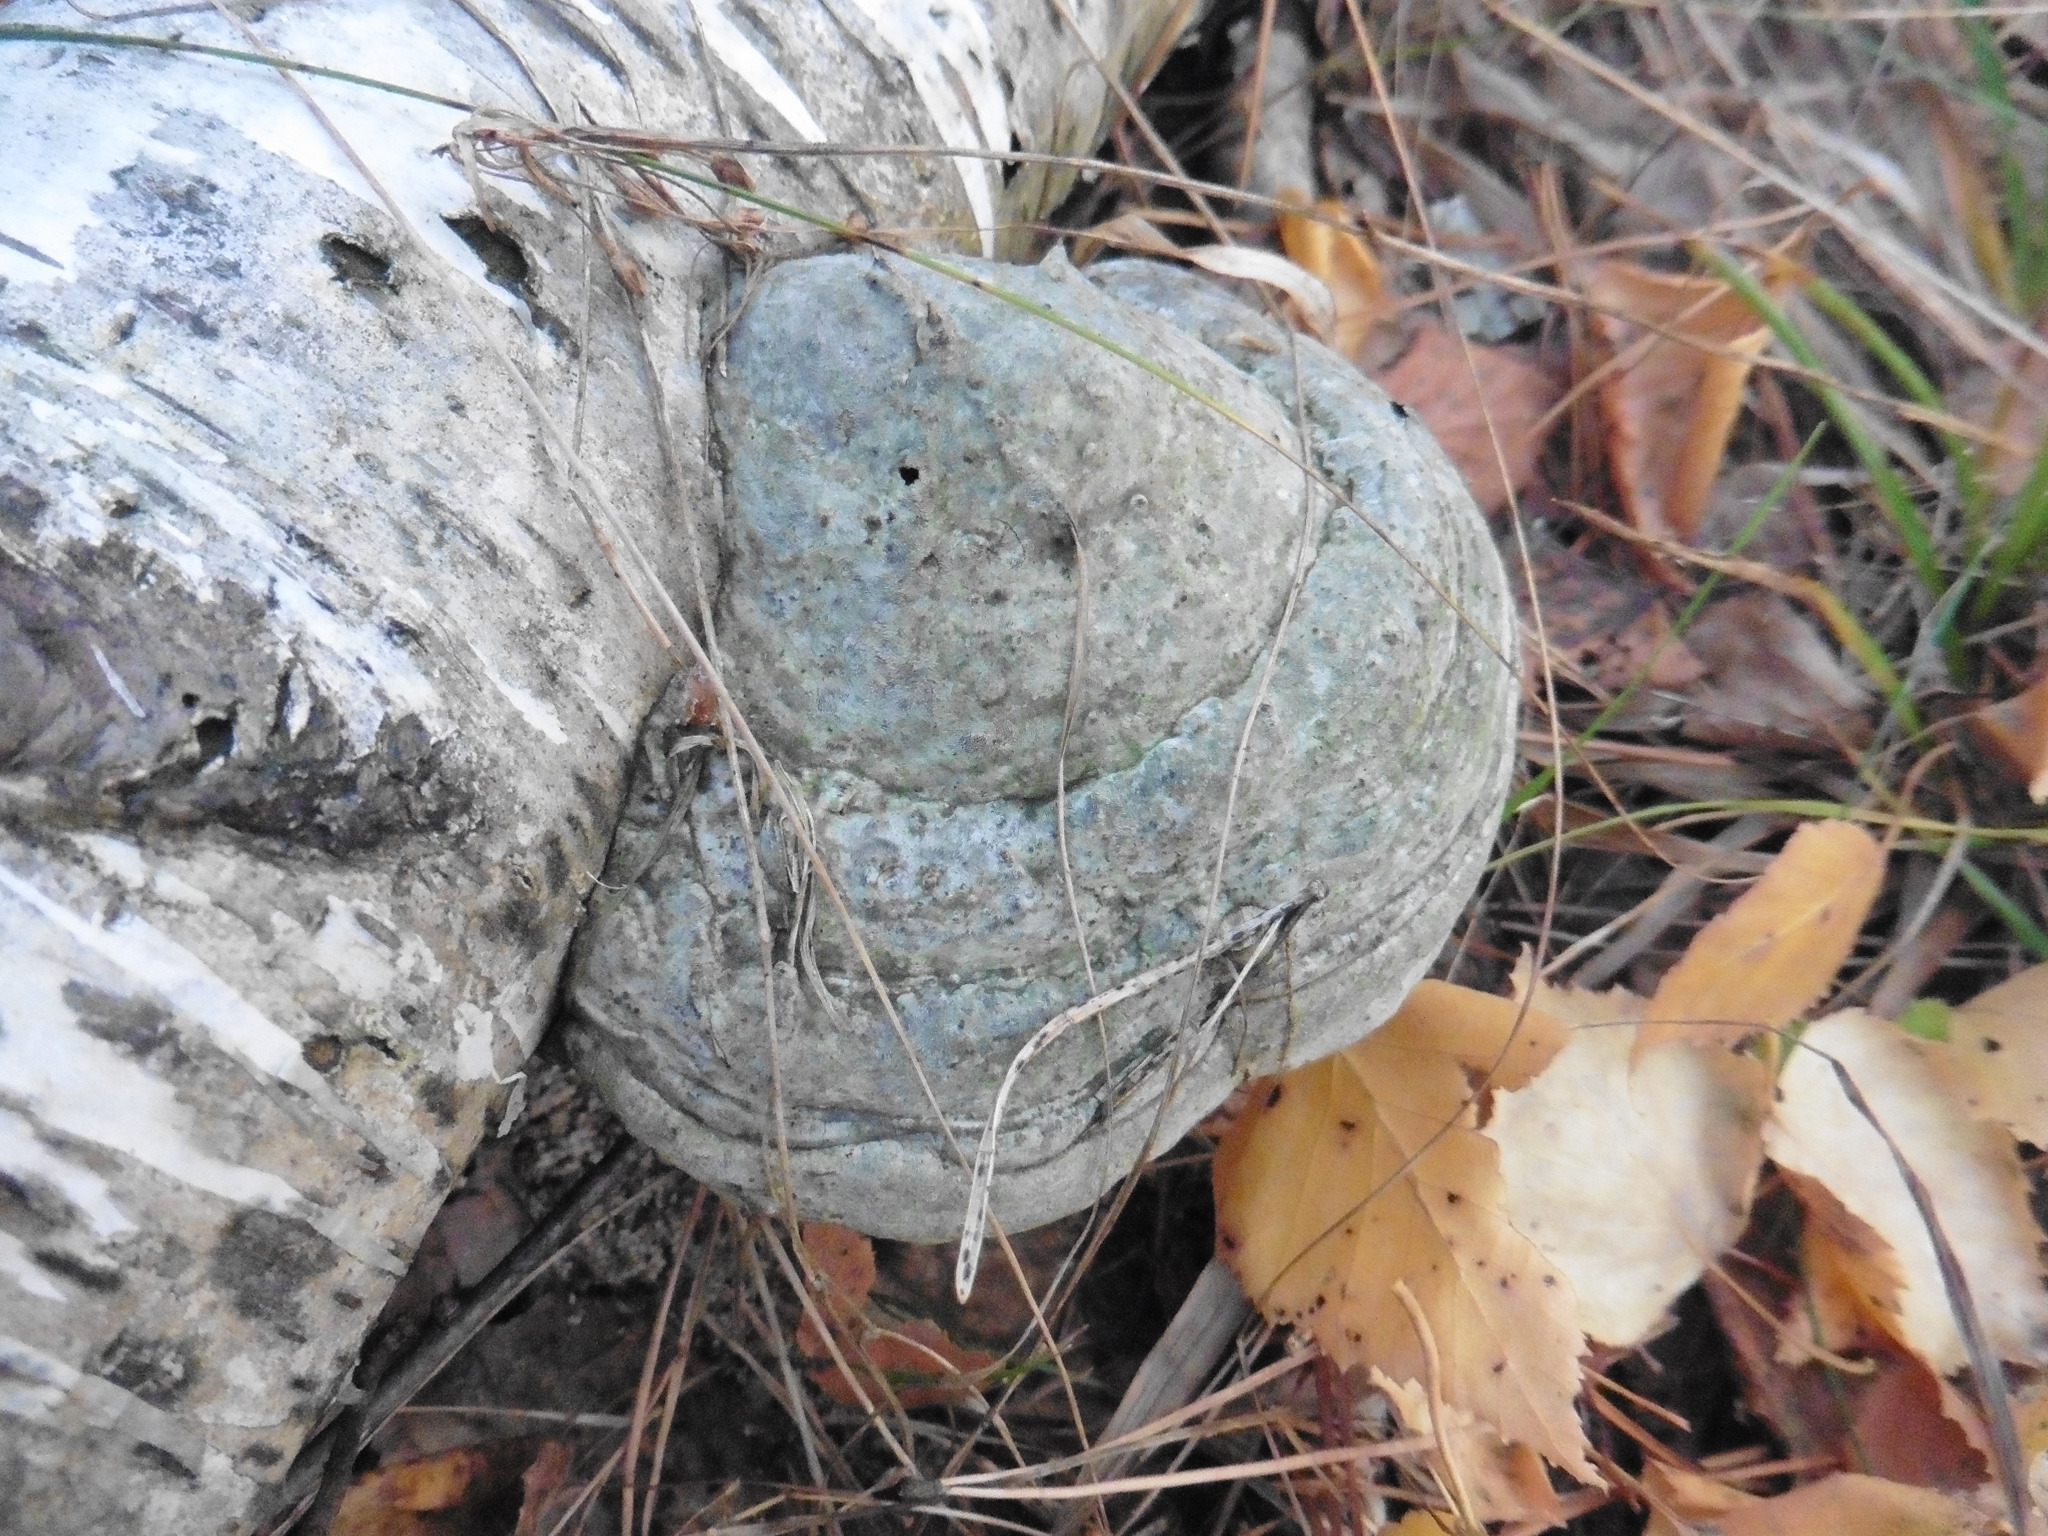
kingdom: Fungi
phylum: Basidiomycota
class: Agaricomycetes
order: Polyporales
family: Polyporaceae
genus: Fomes
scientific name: Fomes fomentarius
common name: Hoof fungus
